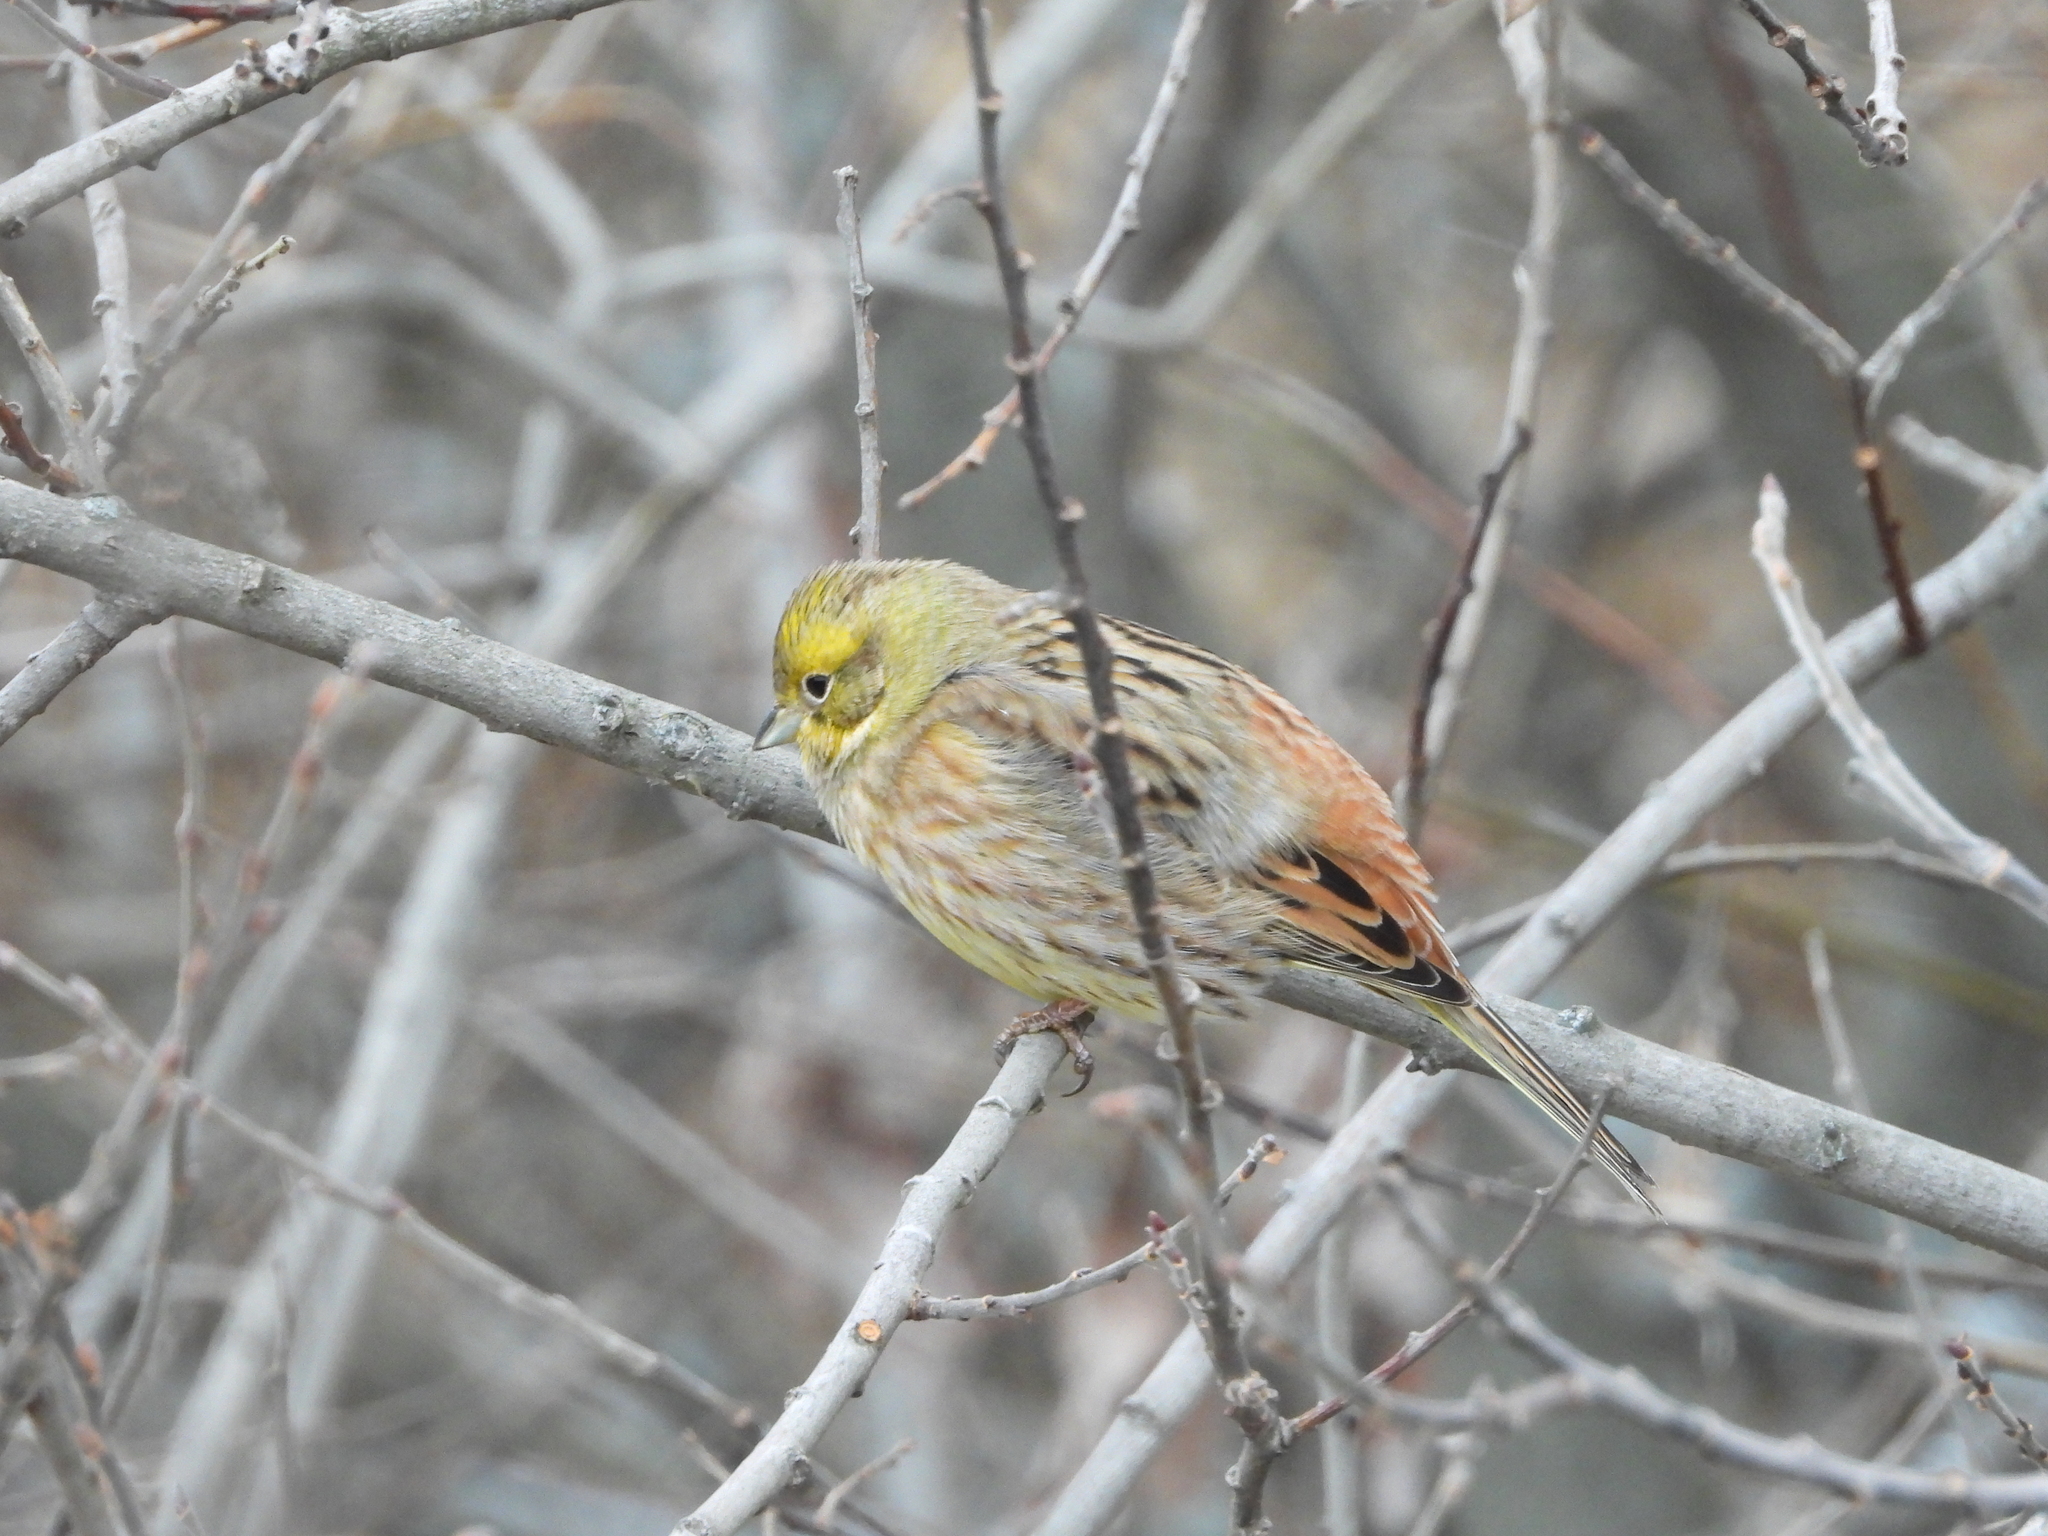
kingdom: Animalia
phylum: Chordata
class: Aves
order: Passeriformes
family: Emberizidae
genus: Emberiza
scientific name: Emberiza citrinella
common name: Yellowhammer
